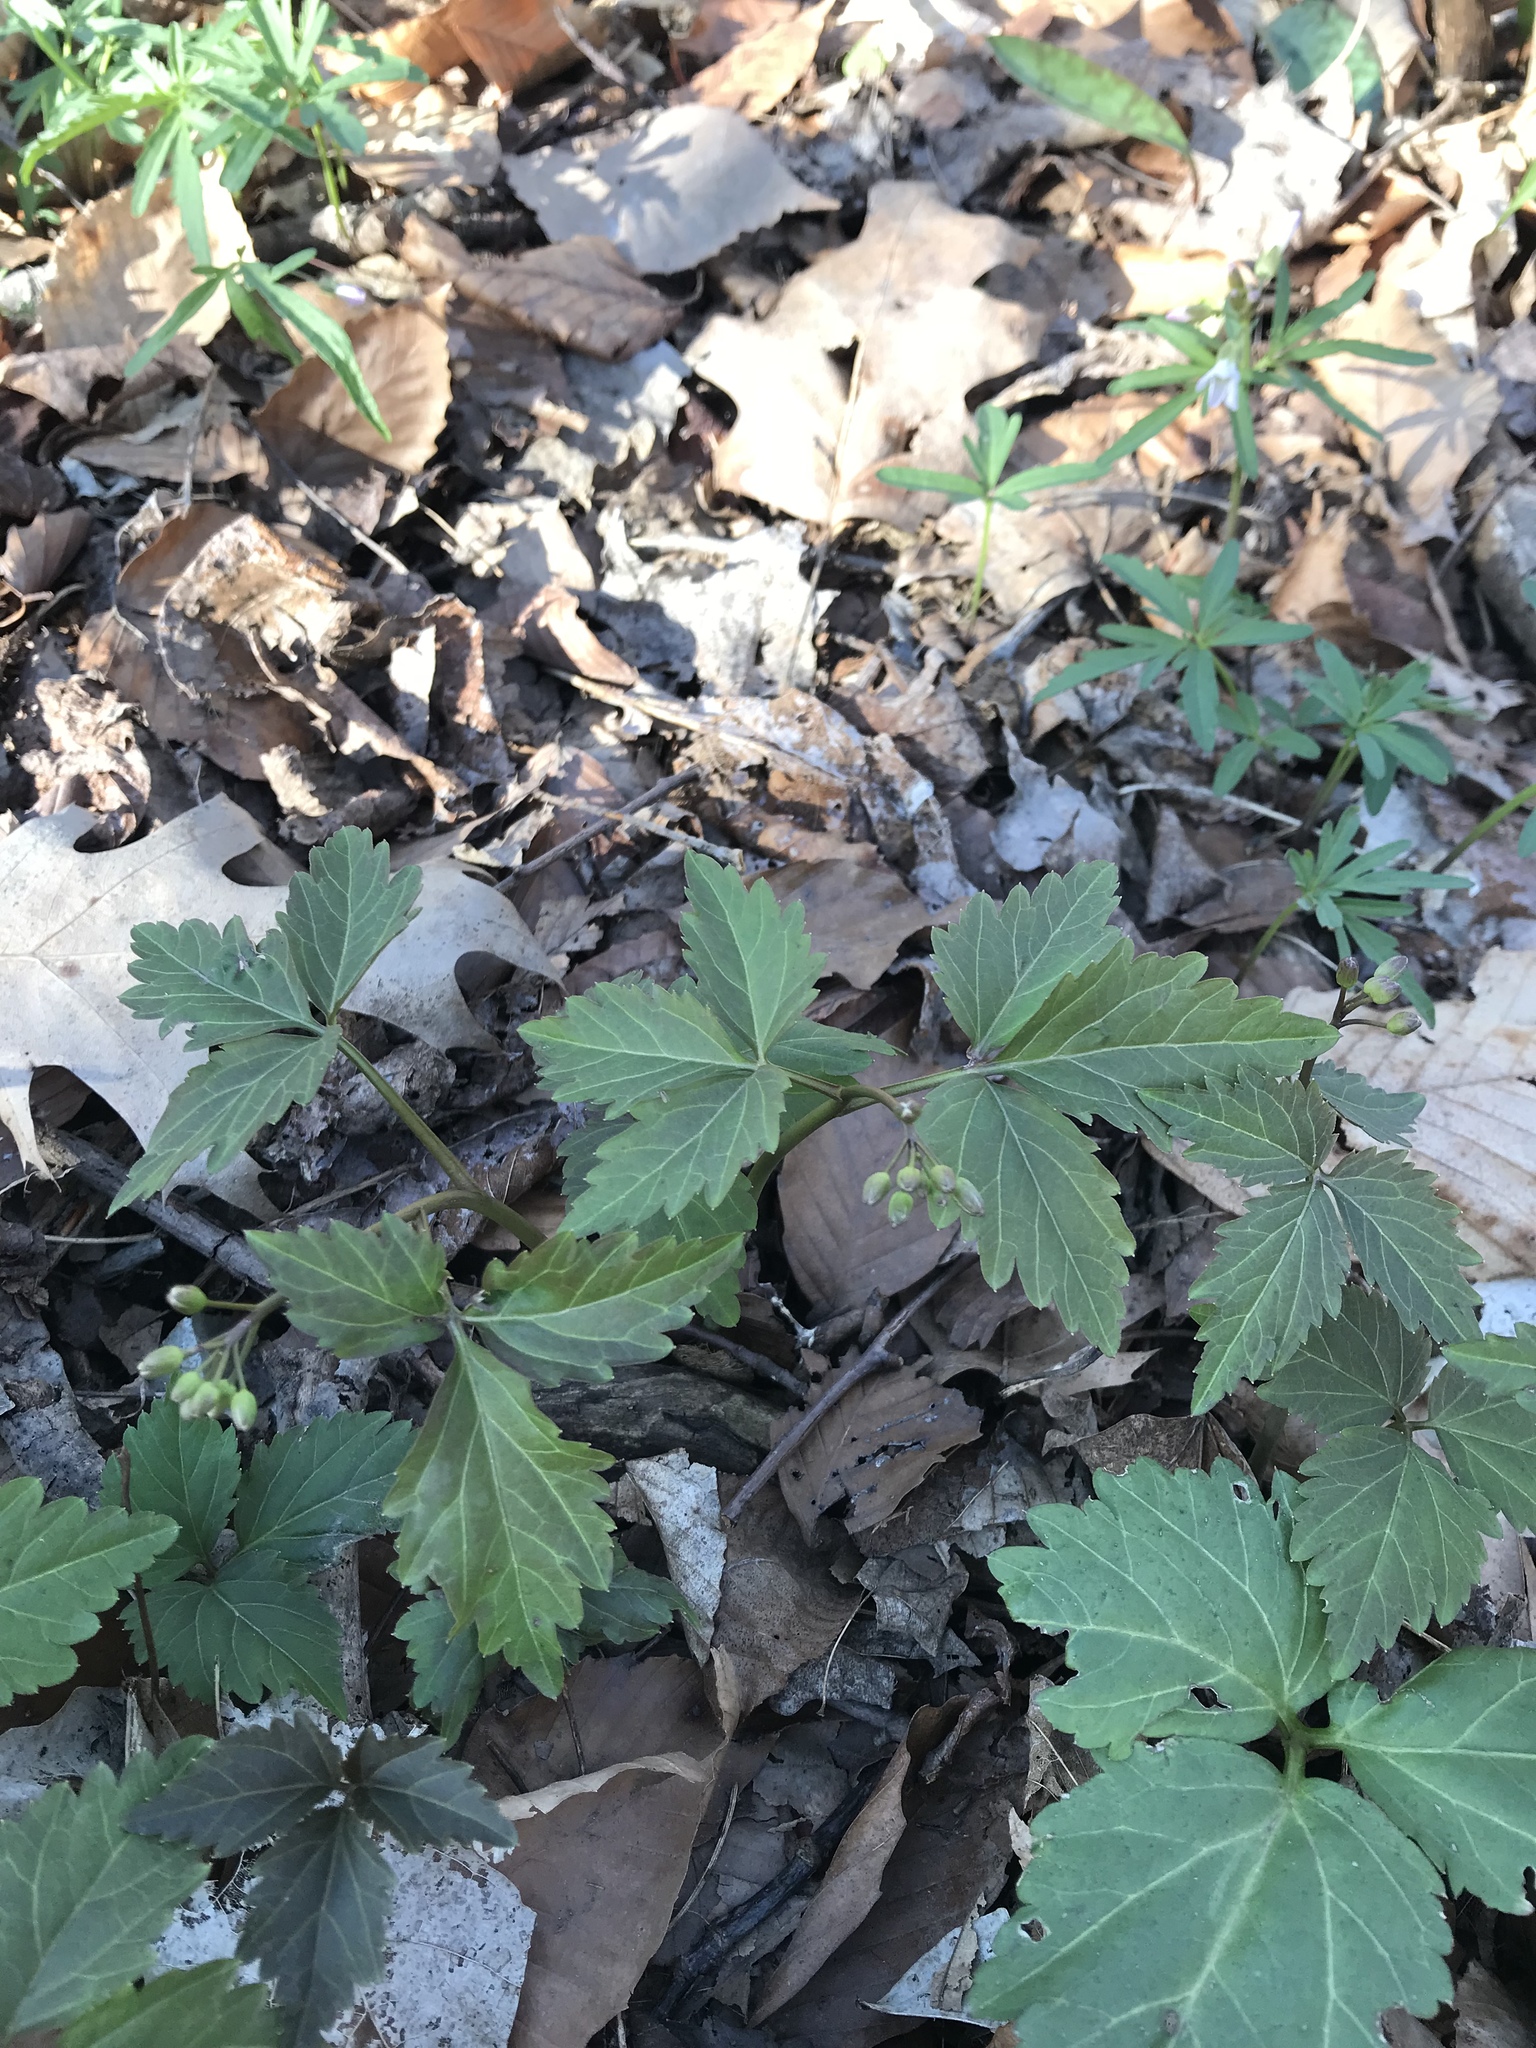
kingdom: Plantae
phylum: Tracheophyta
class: Magnoliopsida
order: Brassicales
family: Brassicaceae
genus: Cardamine
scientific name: Cardamine diphylla
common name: Broad-leaved toothwort
